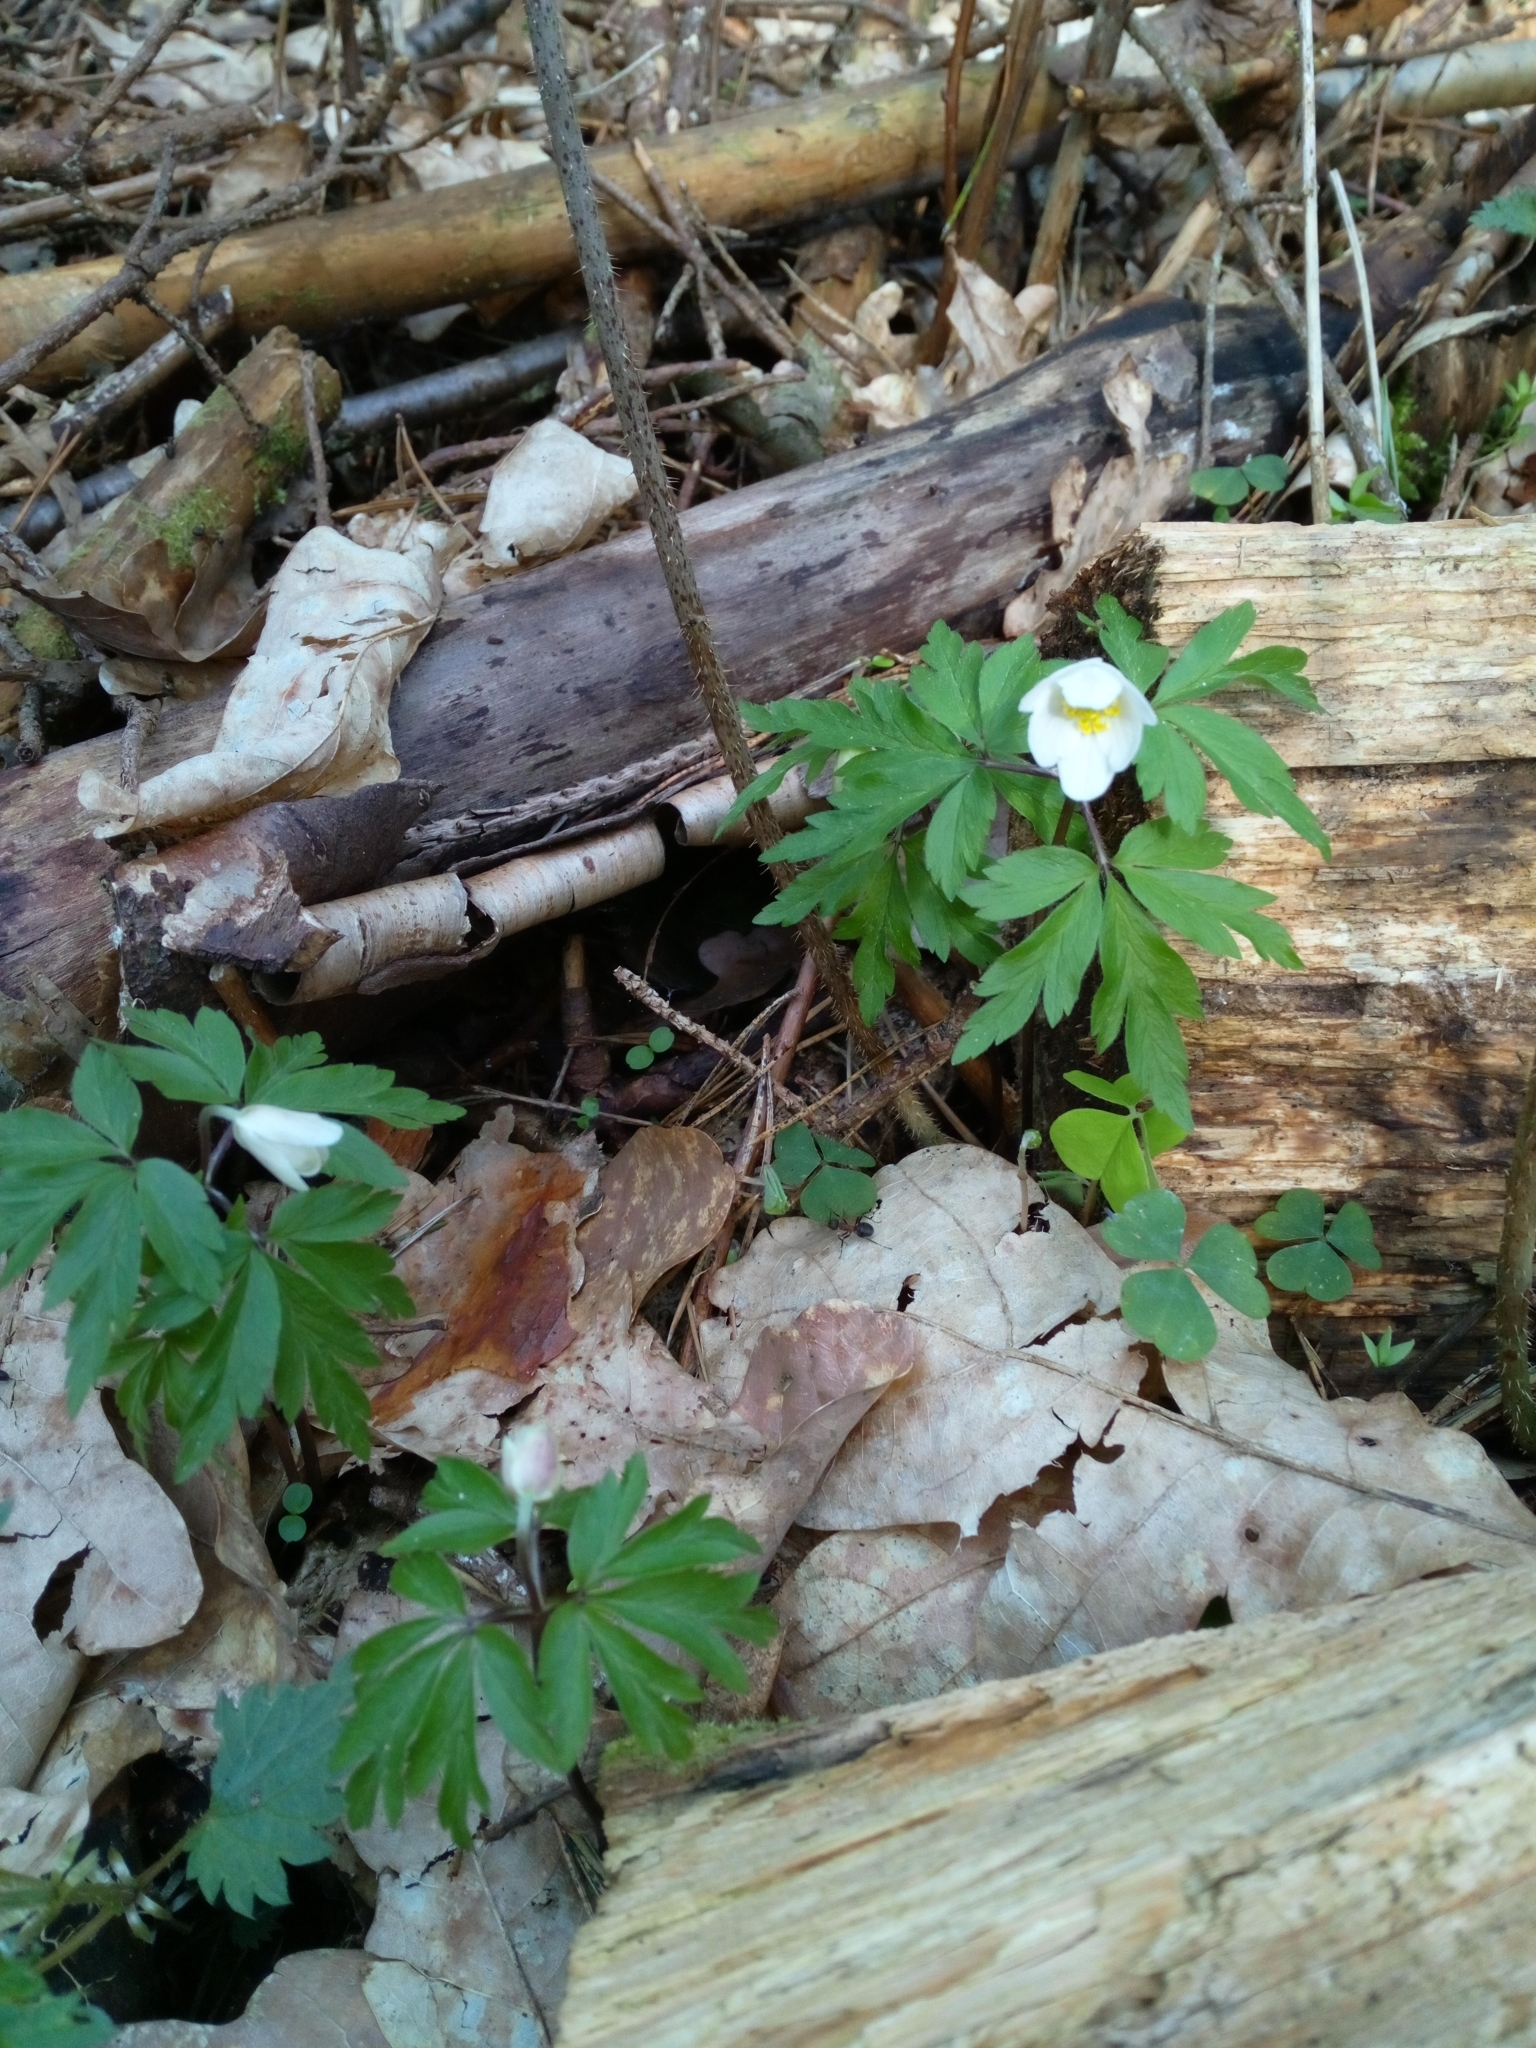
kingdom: Plantae
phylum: Tracheophyta
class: Magnoliopsida
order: Ranunculales
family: Ranunculaceae
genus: Anemone
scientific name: Anemone nemorosa
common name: Wood anemone
